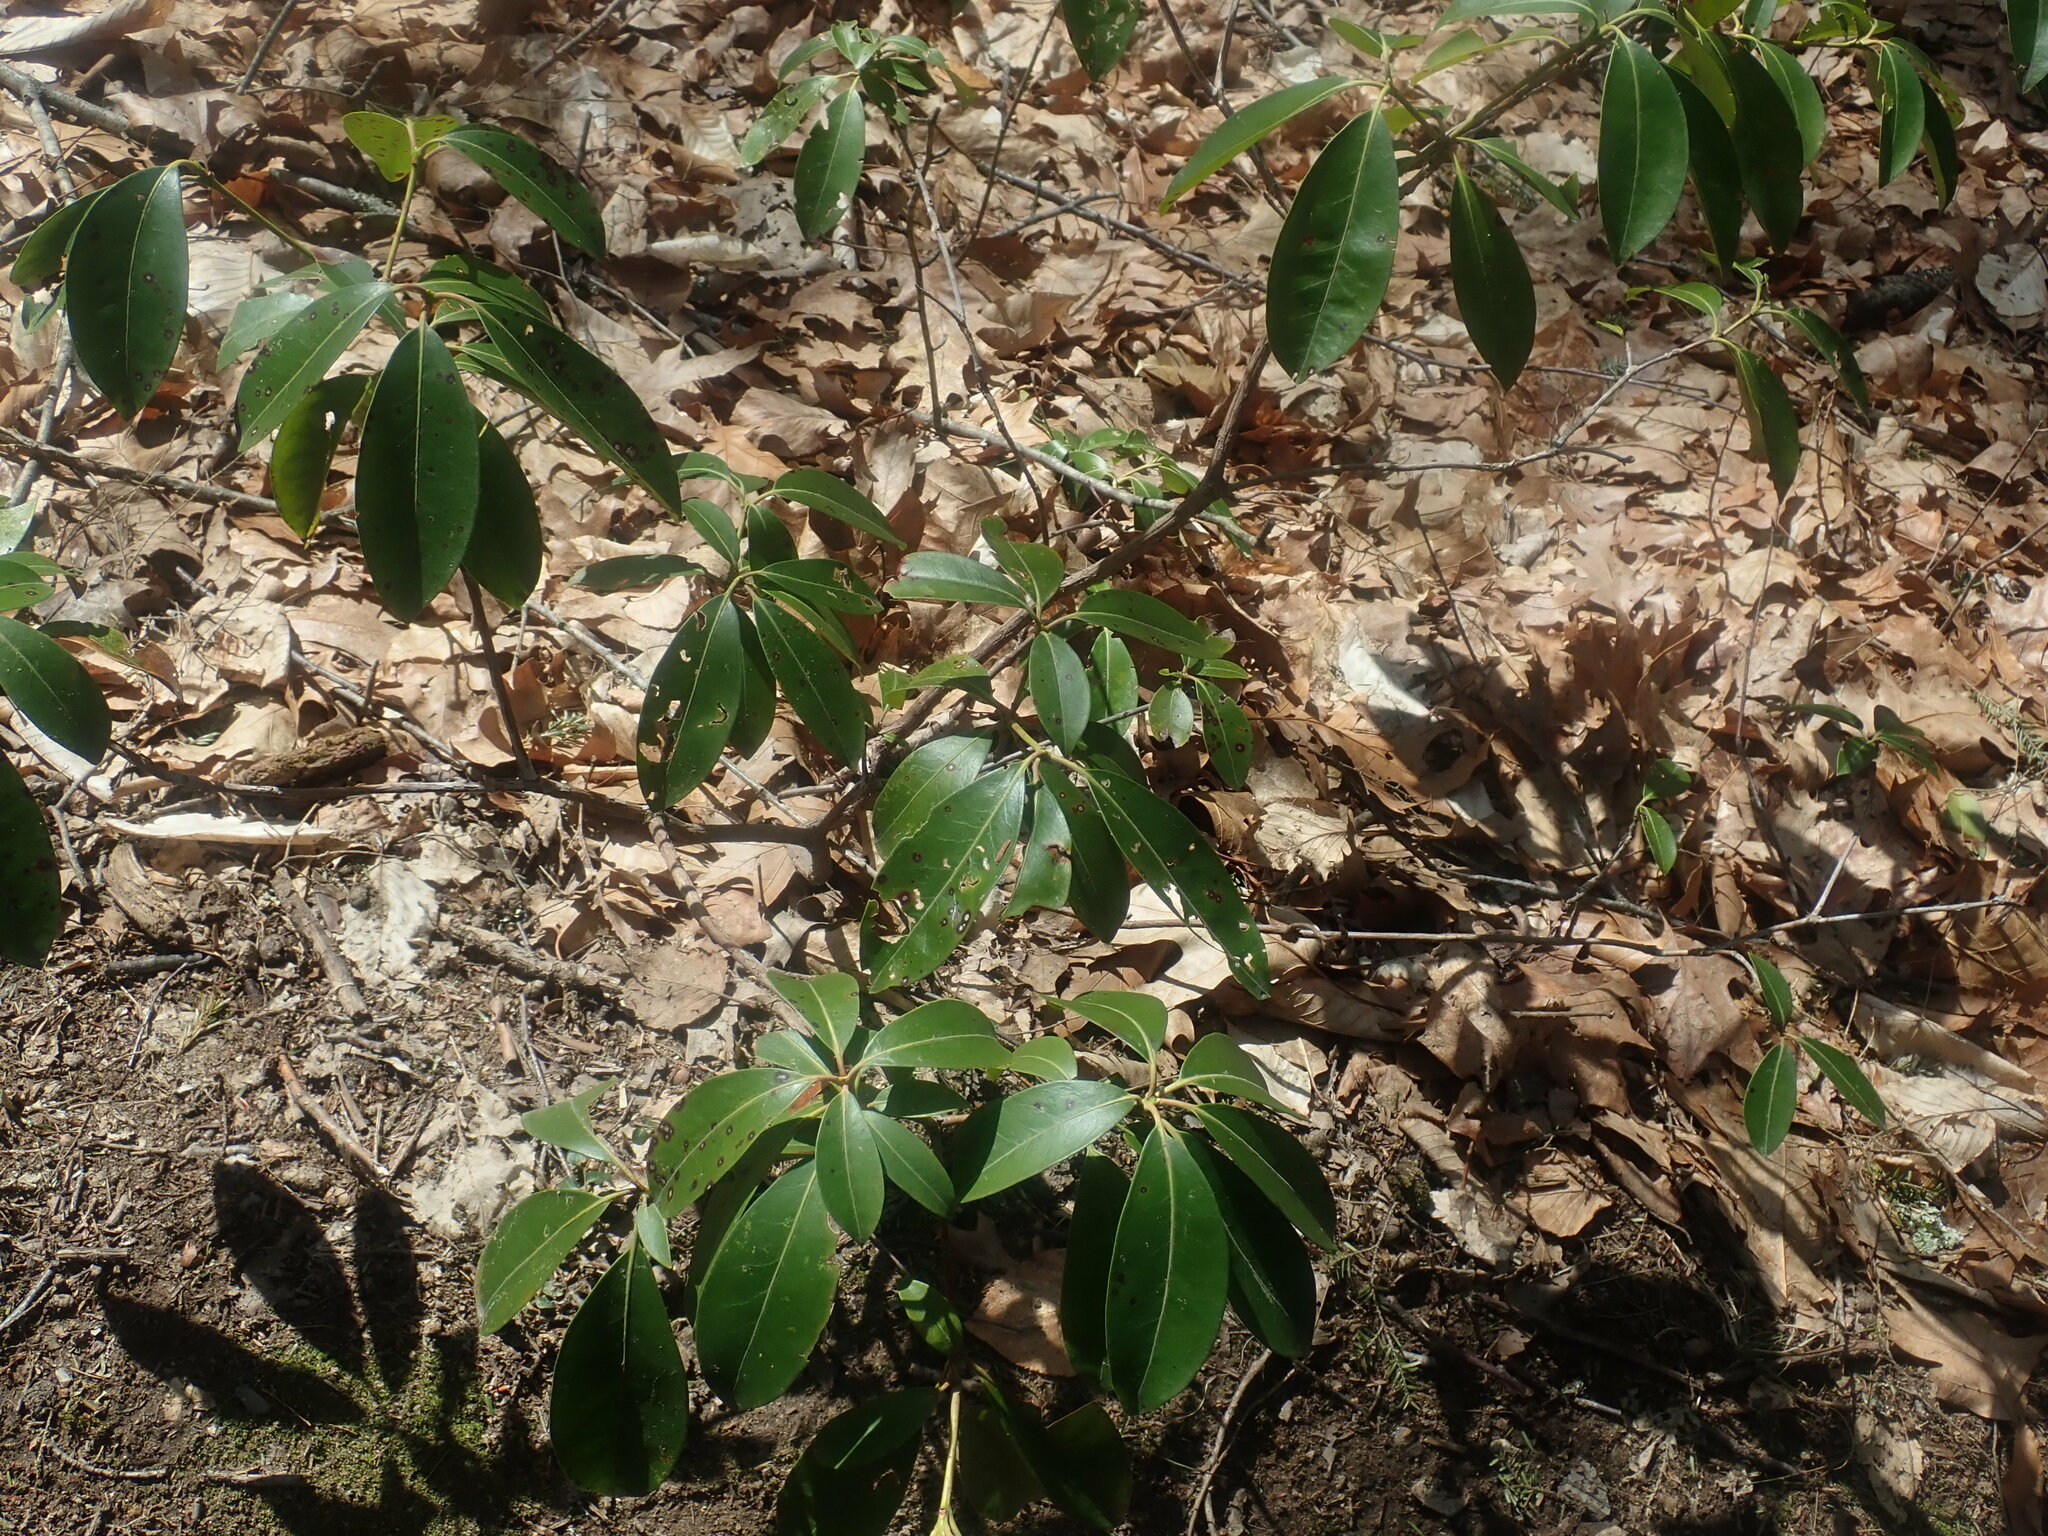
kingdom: Plantae
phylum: Tracheophyta
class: Magnoliopsida
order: Ericales
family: Ericaceae
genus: Kalmia
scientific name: Kalmia latifolia
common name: Mountain-laurel
